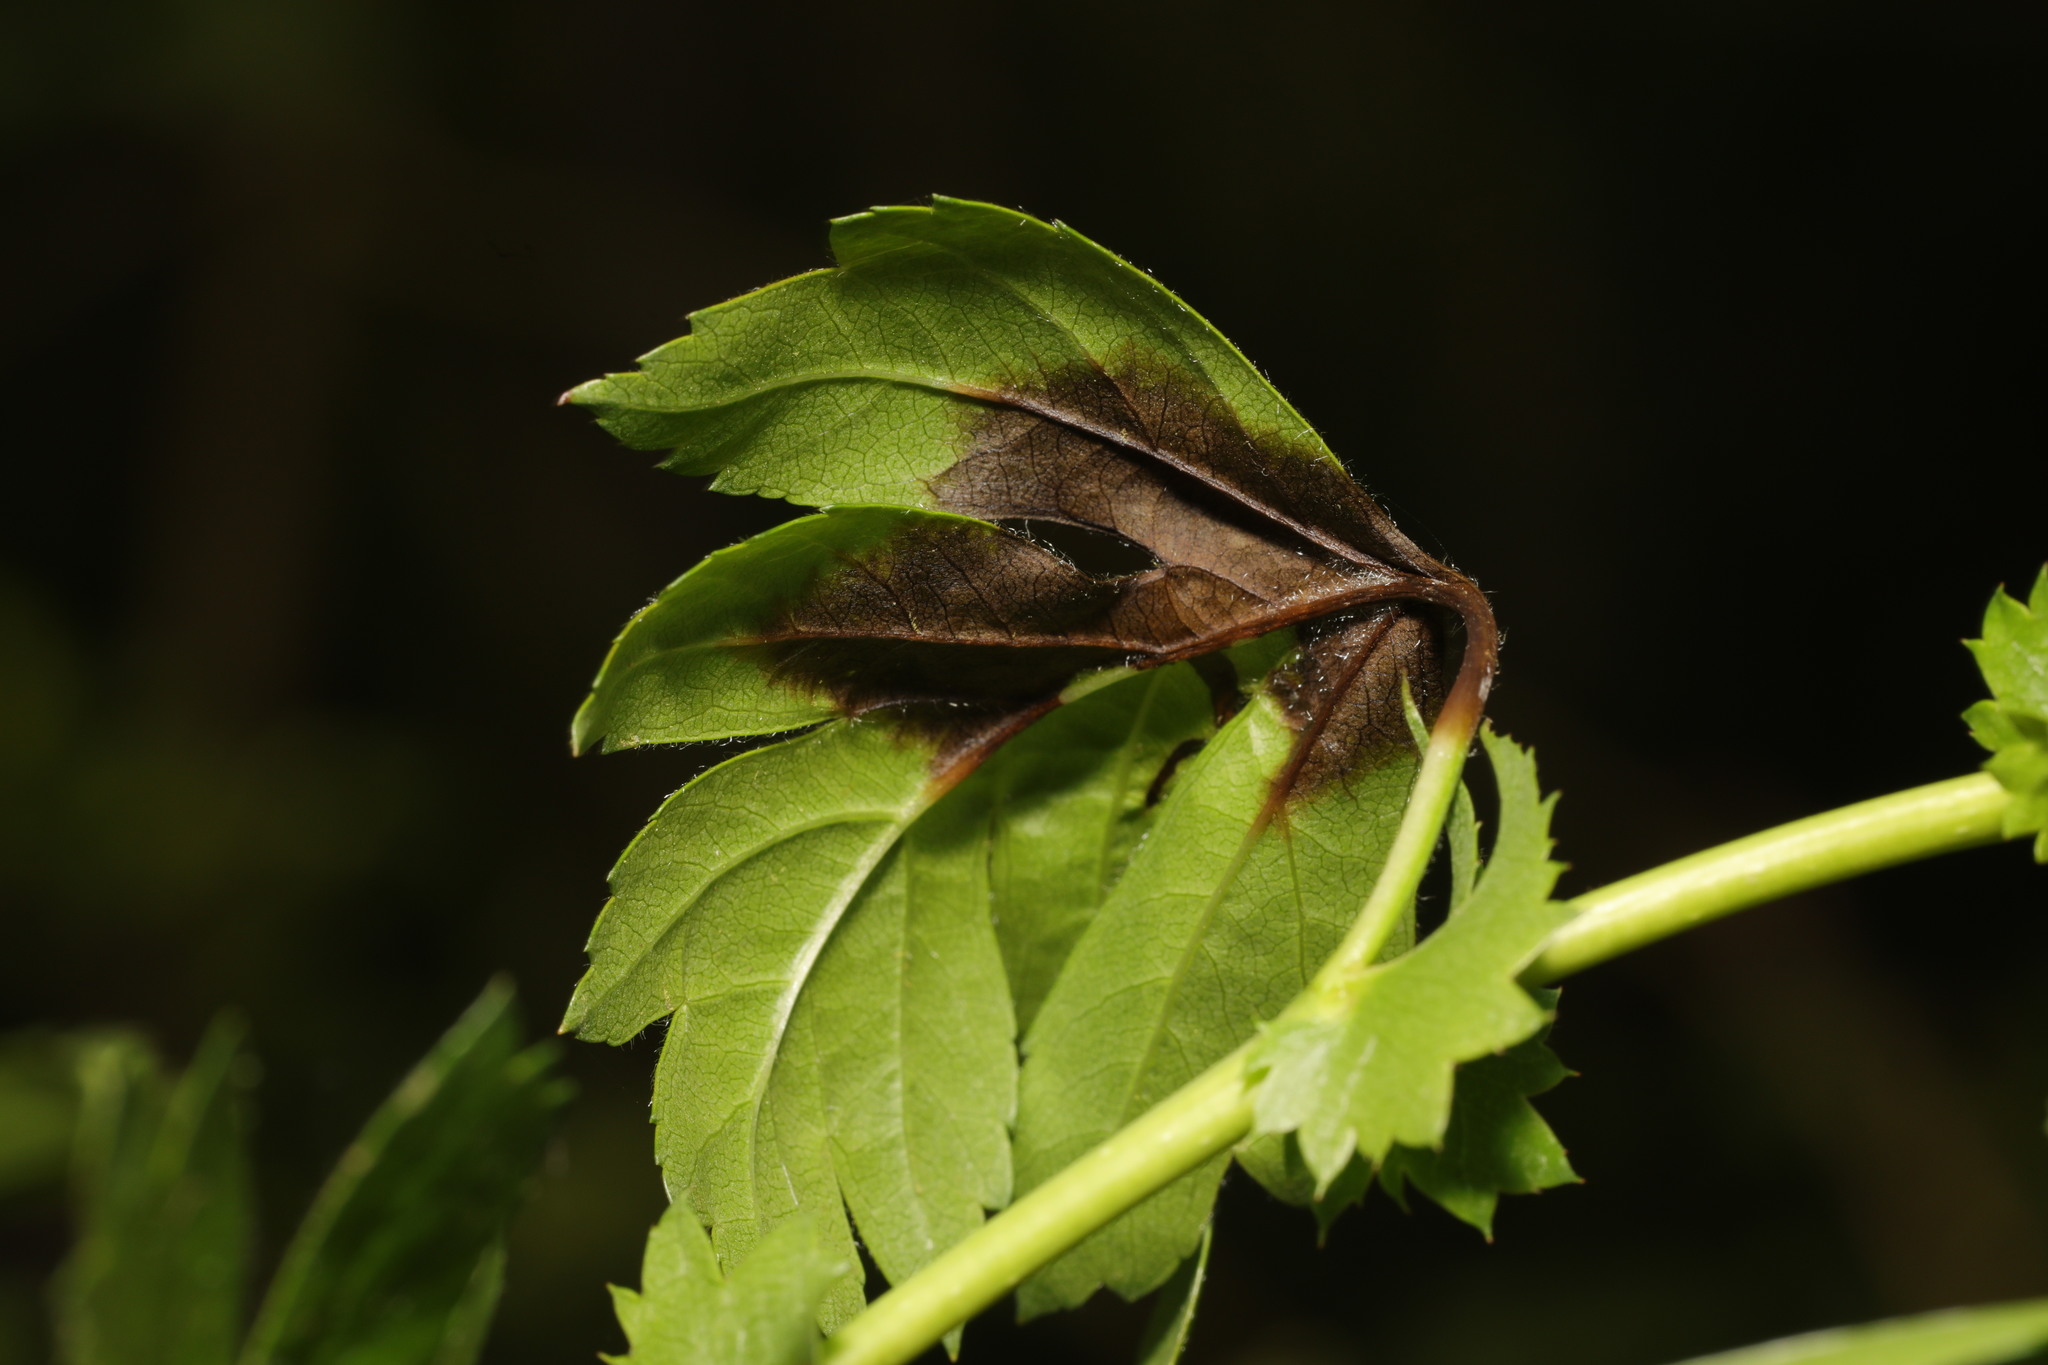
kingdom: Fungi
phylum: Ascomycota
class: Leotiomycetes
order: Helotiales
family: Sclerotiniaceae
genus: Monilinia
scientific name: Monilinia johnsonii
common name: Haw goblet
